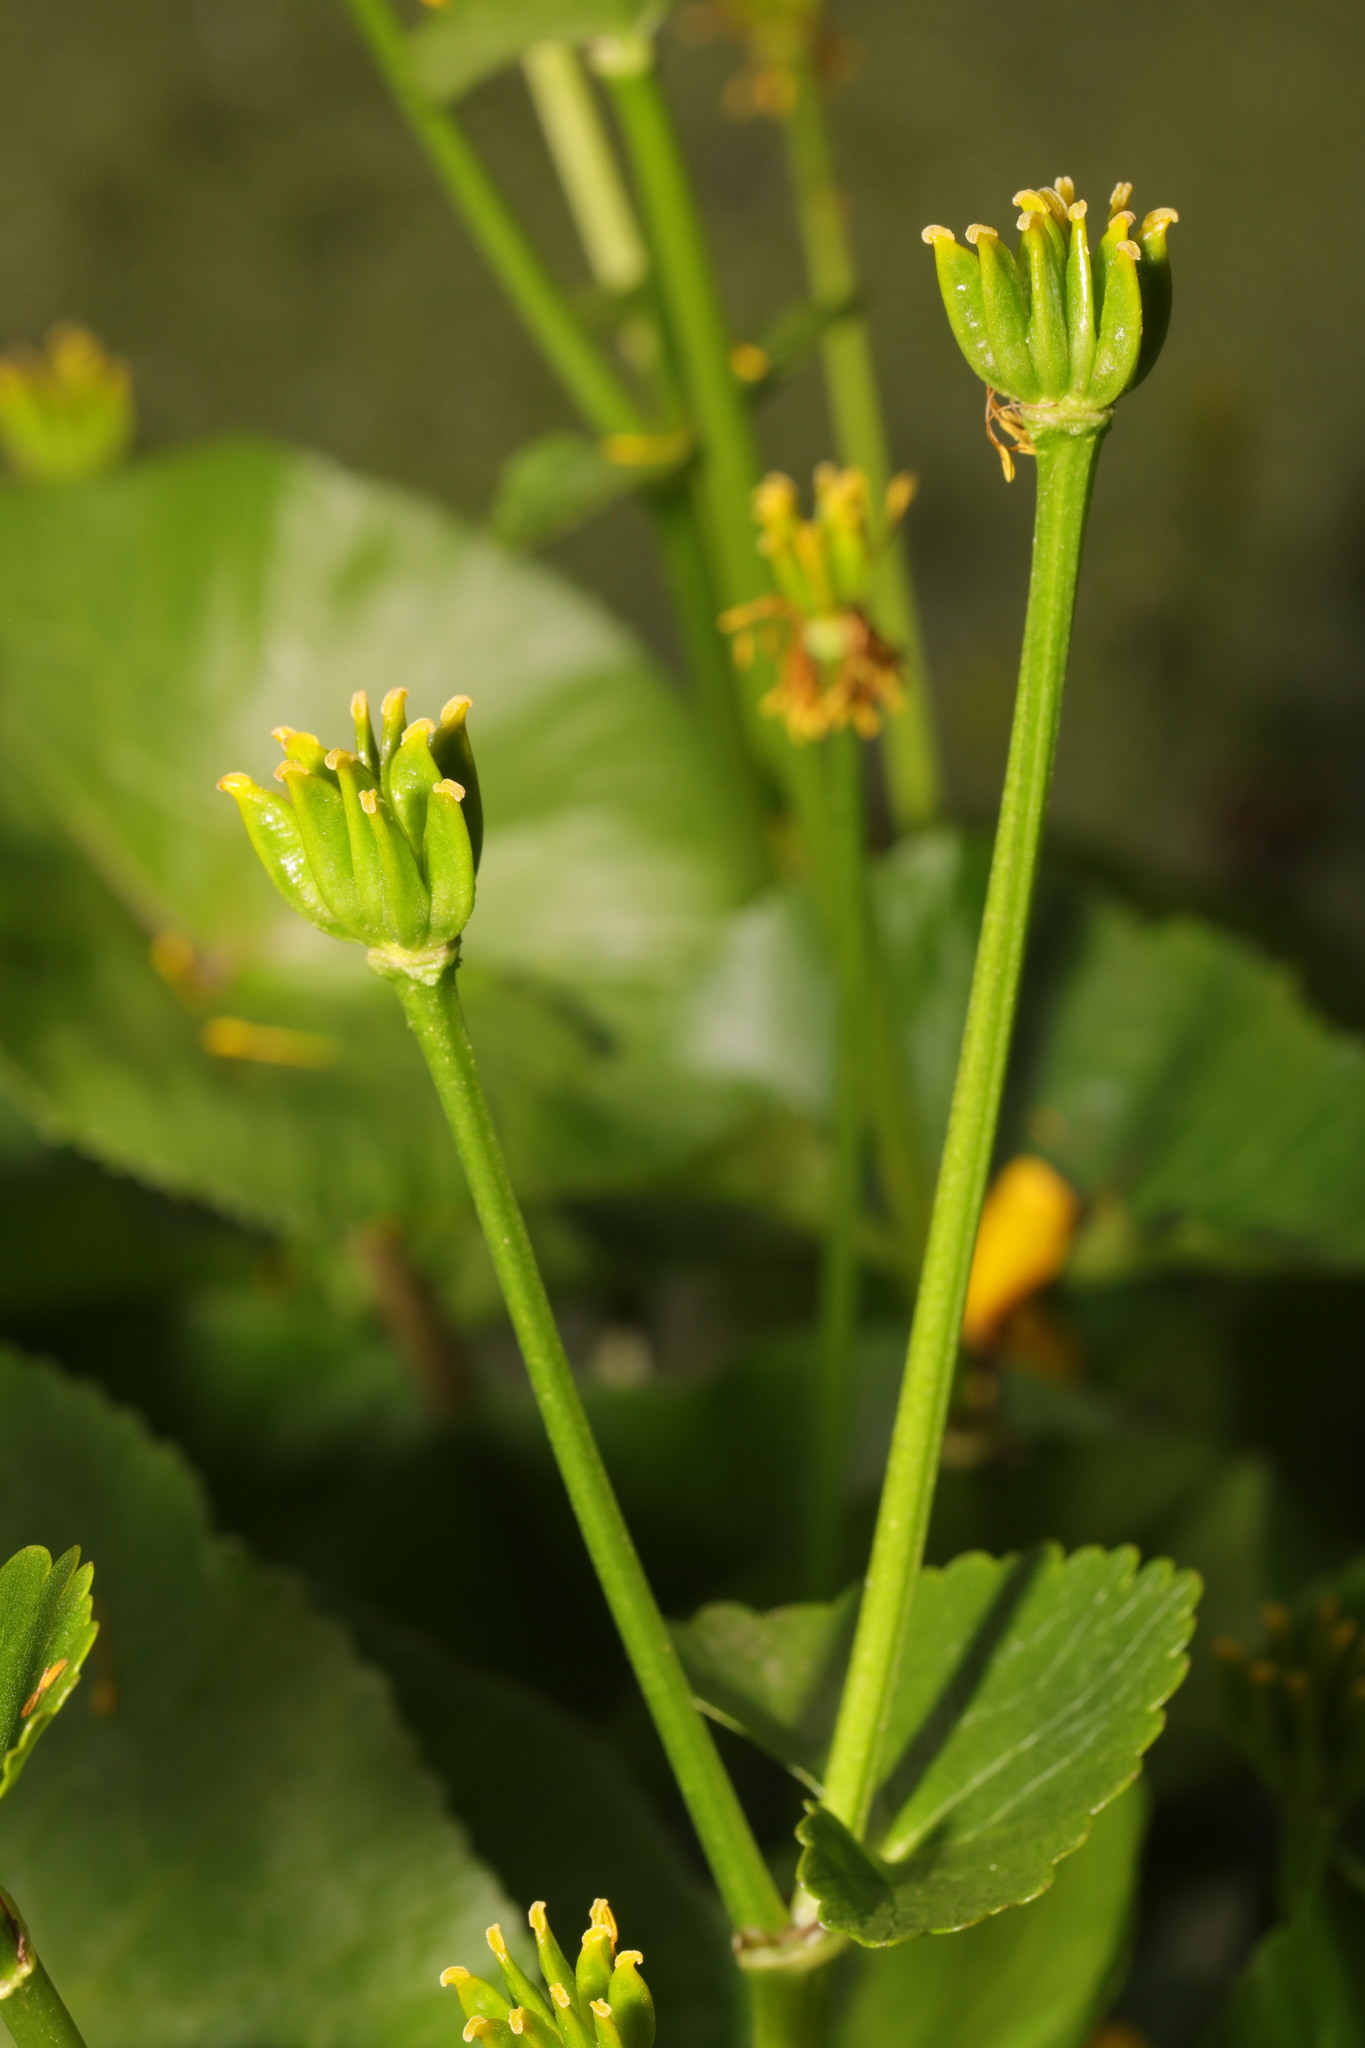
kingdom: Plantae
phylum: Tracheophyta
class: Magnoliopsida
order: Ranunculales
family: Ranunculaceae
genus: Caltha
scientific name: Caltha palustris
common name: Marsh marigold
